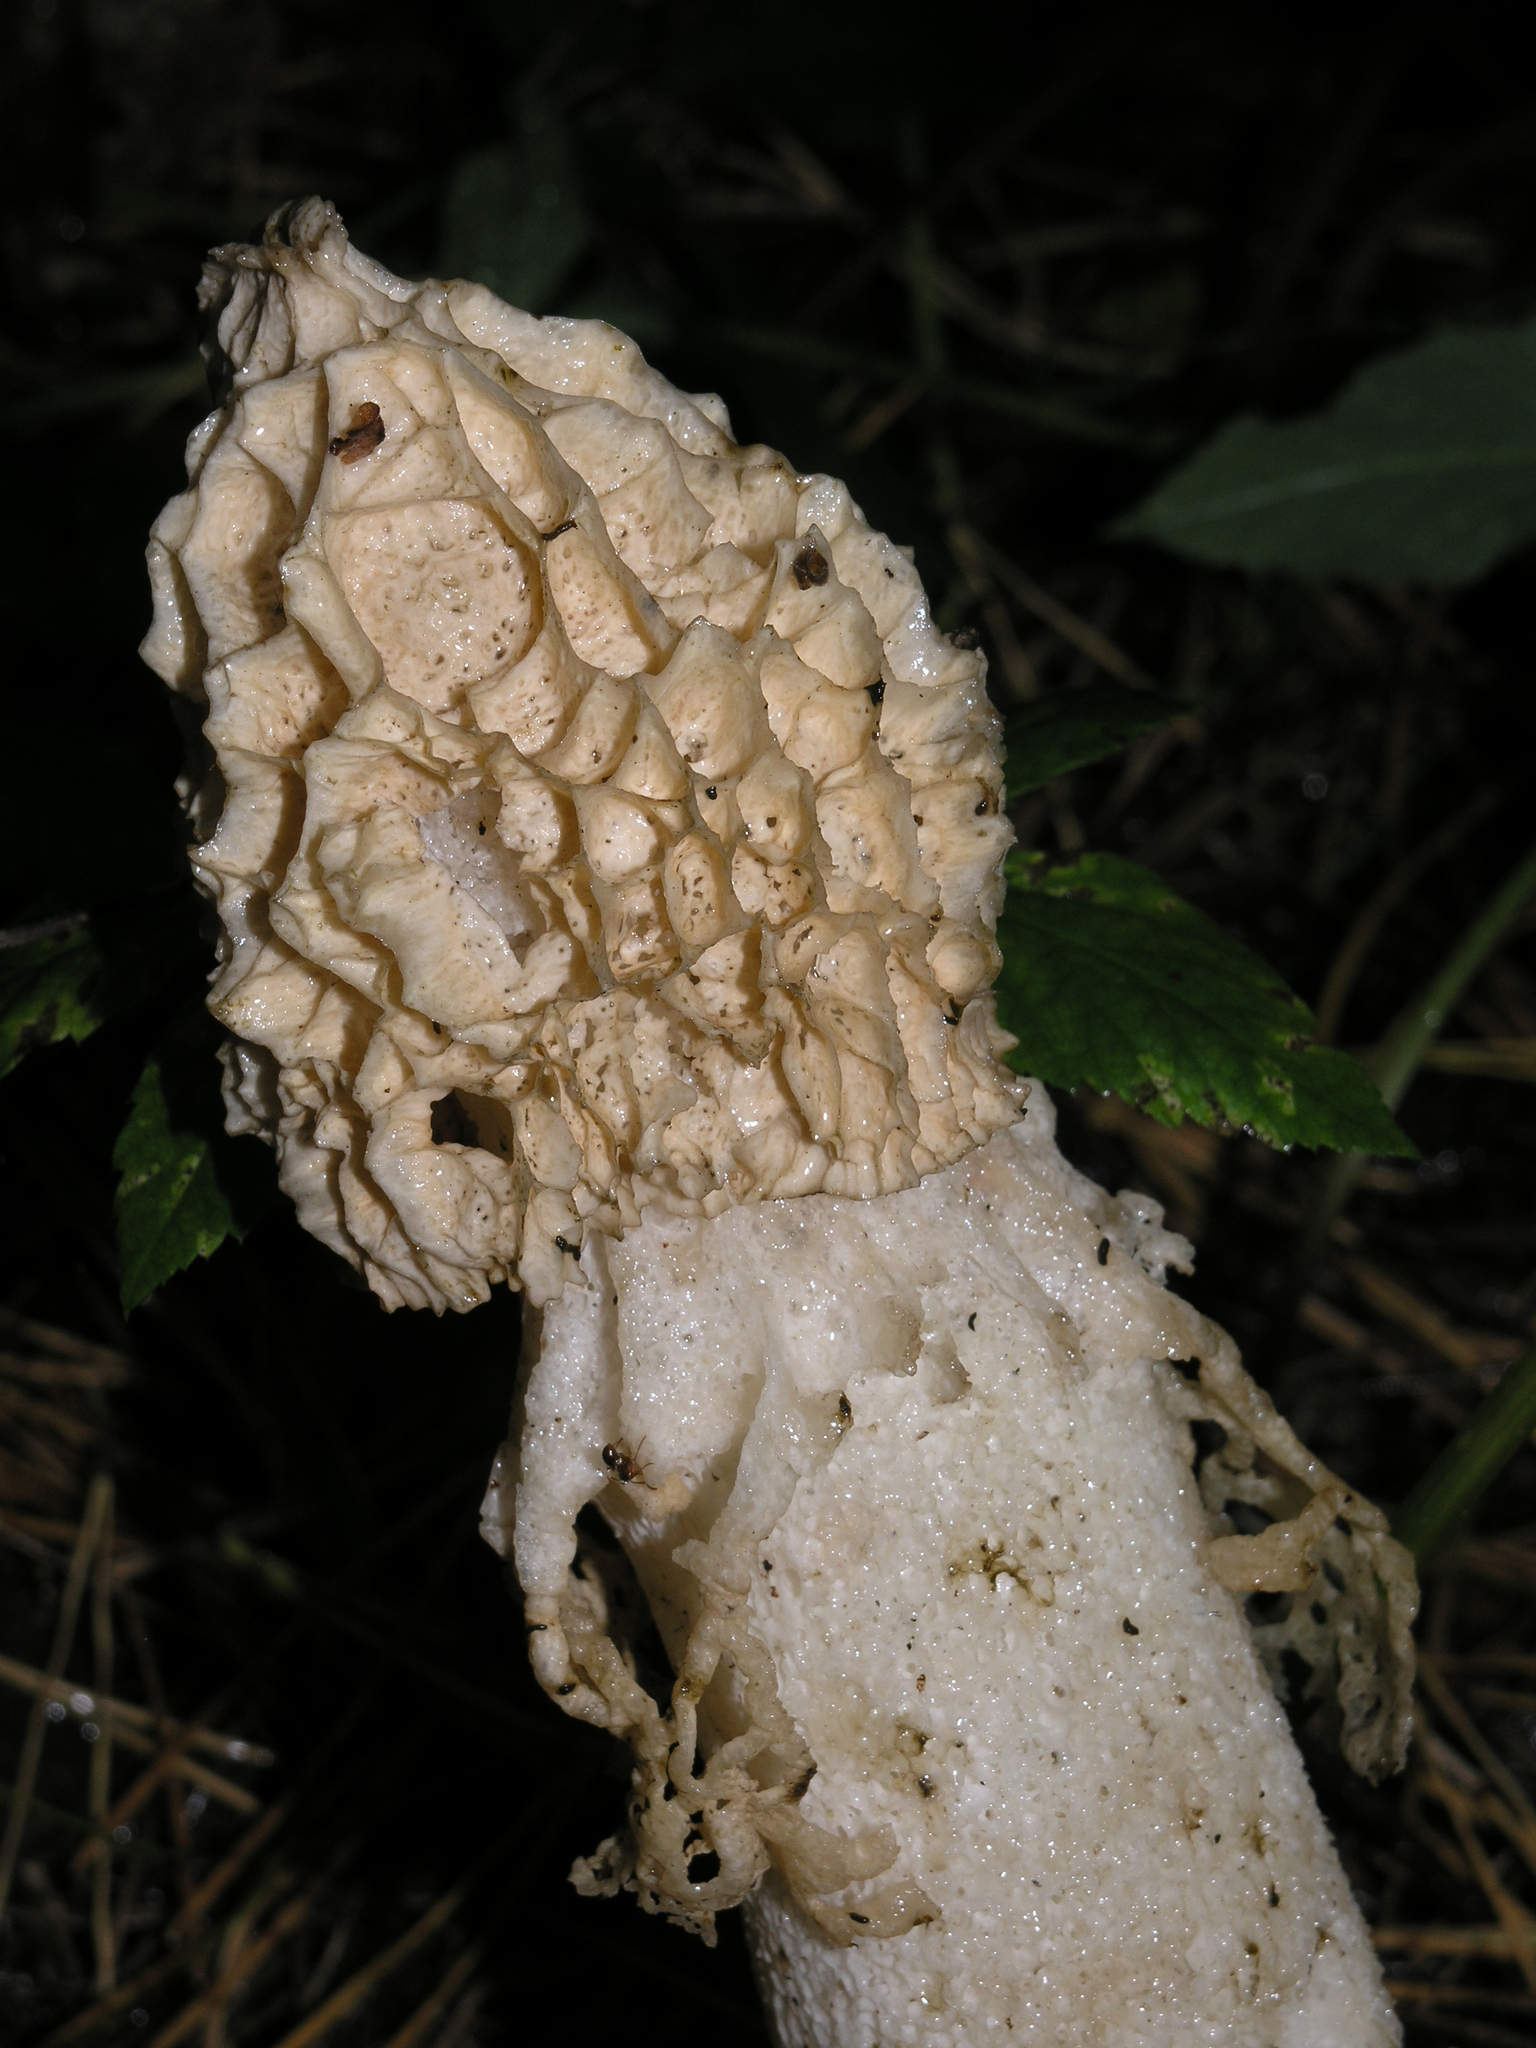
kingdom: Fungi
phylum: Basidiomycota
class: Agaricomycetes
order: Phallales
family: Phallaceae
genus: Phallus
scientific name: Phallus ultraduplicatus
